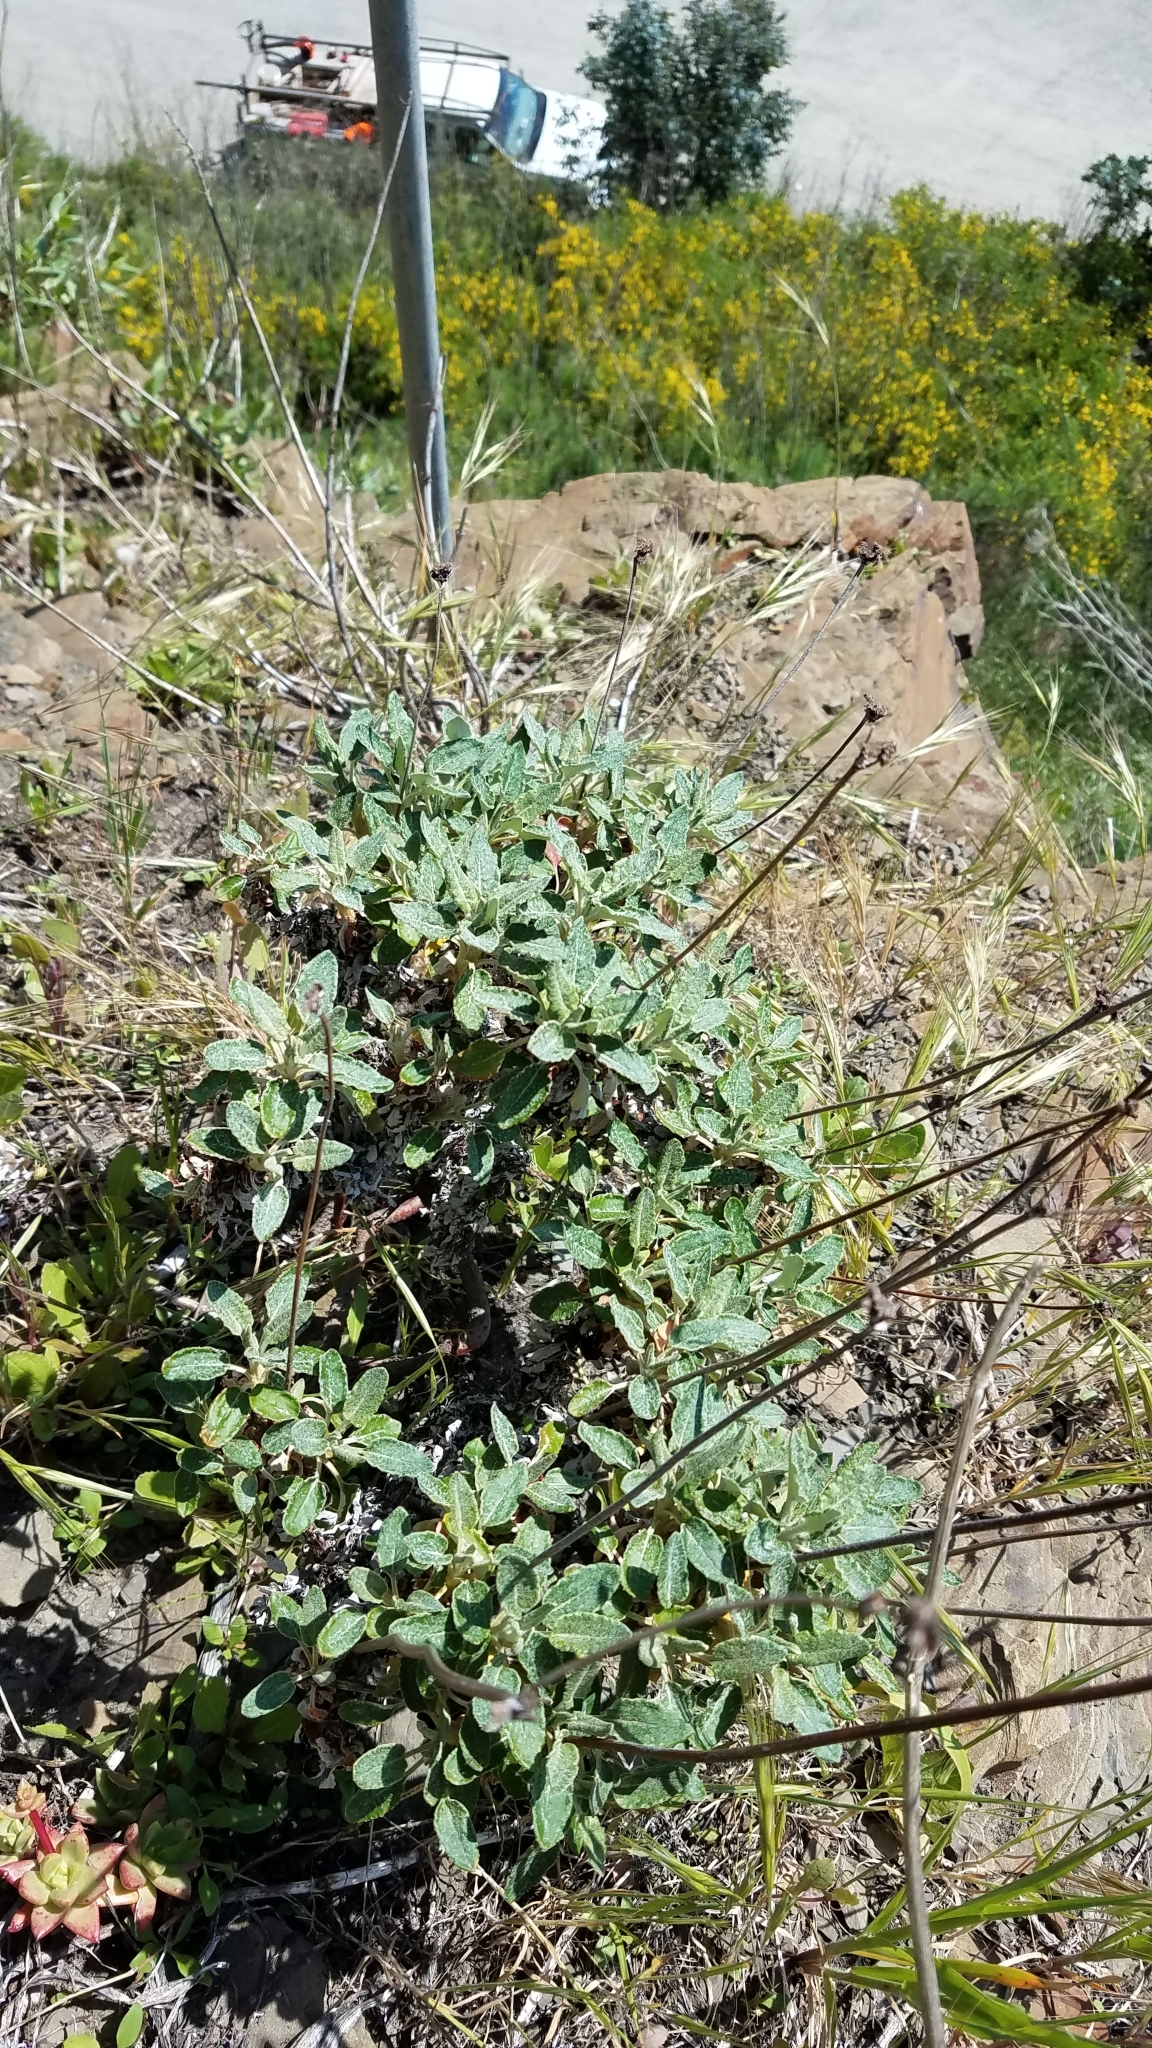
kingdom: Plantae
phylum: Tracheophyta
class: Magnoliopsida
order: Caryophyllales
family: Polygonaceae
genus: Eriogonum
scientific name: Eriogonum latifolium
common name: Seaside wild buckwheat
